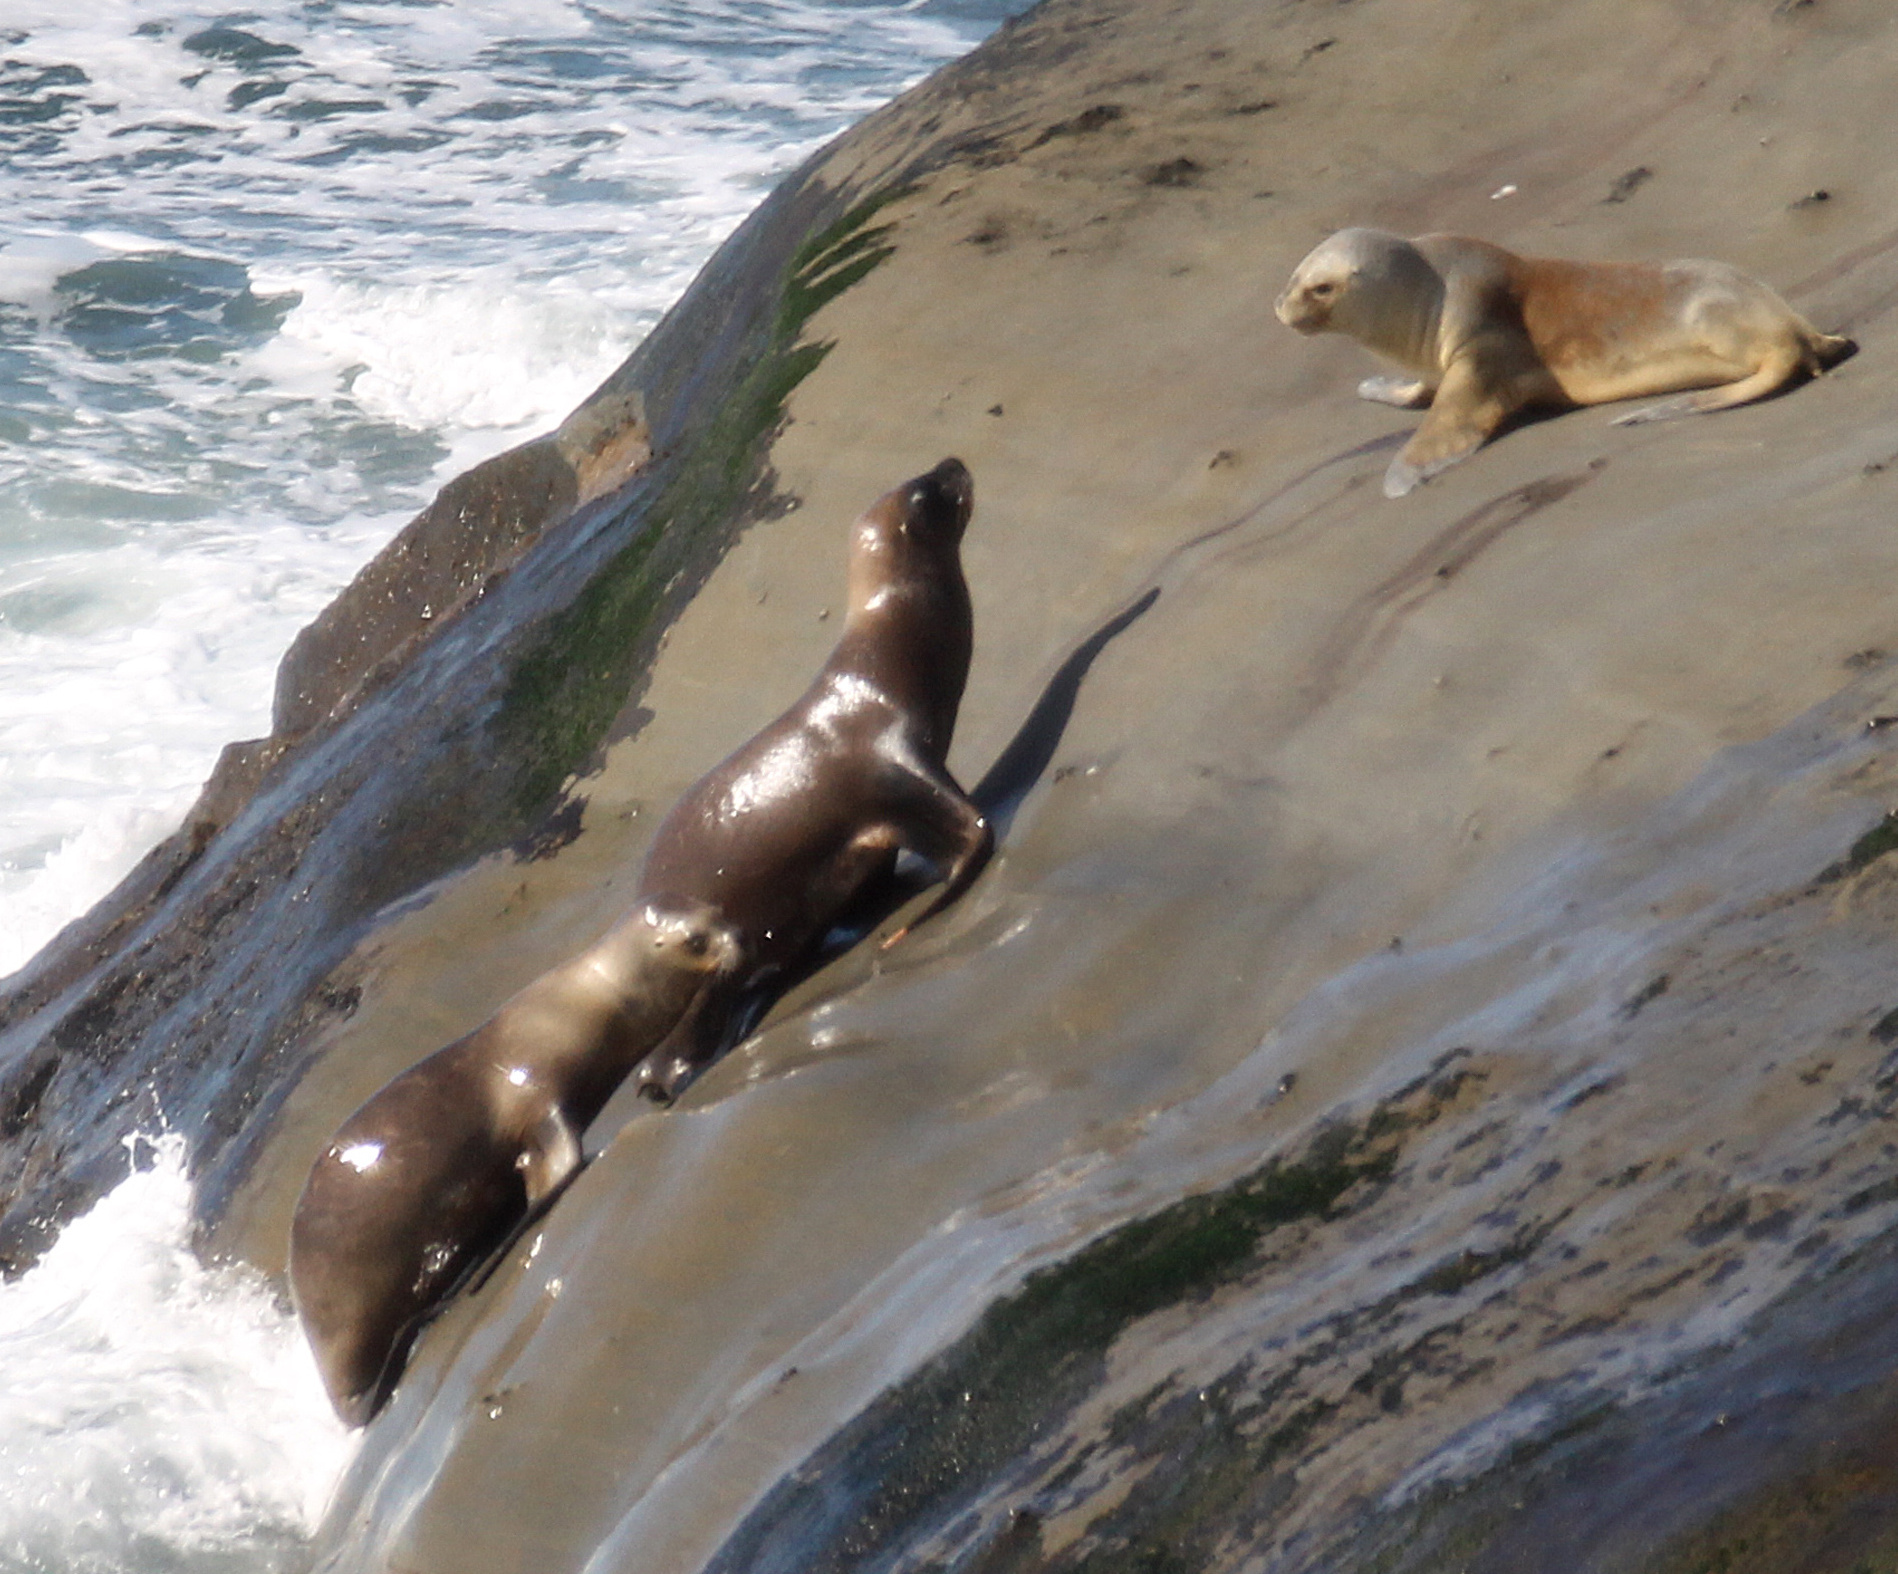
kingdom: Animalia
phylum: Chordata
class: Mammalia
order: Carnivora
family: Otariidae
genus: Otaria
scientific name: Otaria byronia
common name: South american sea lion
